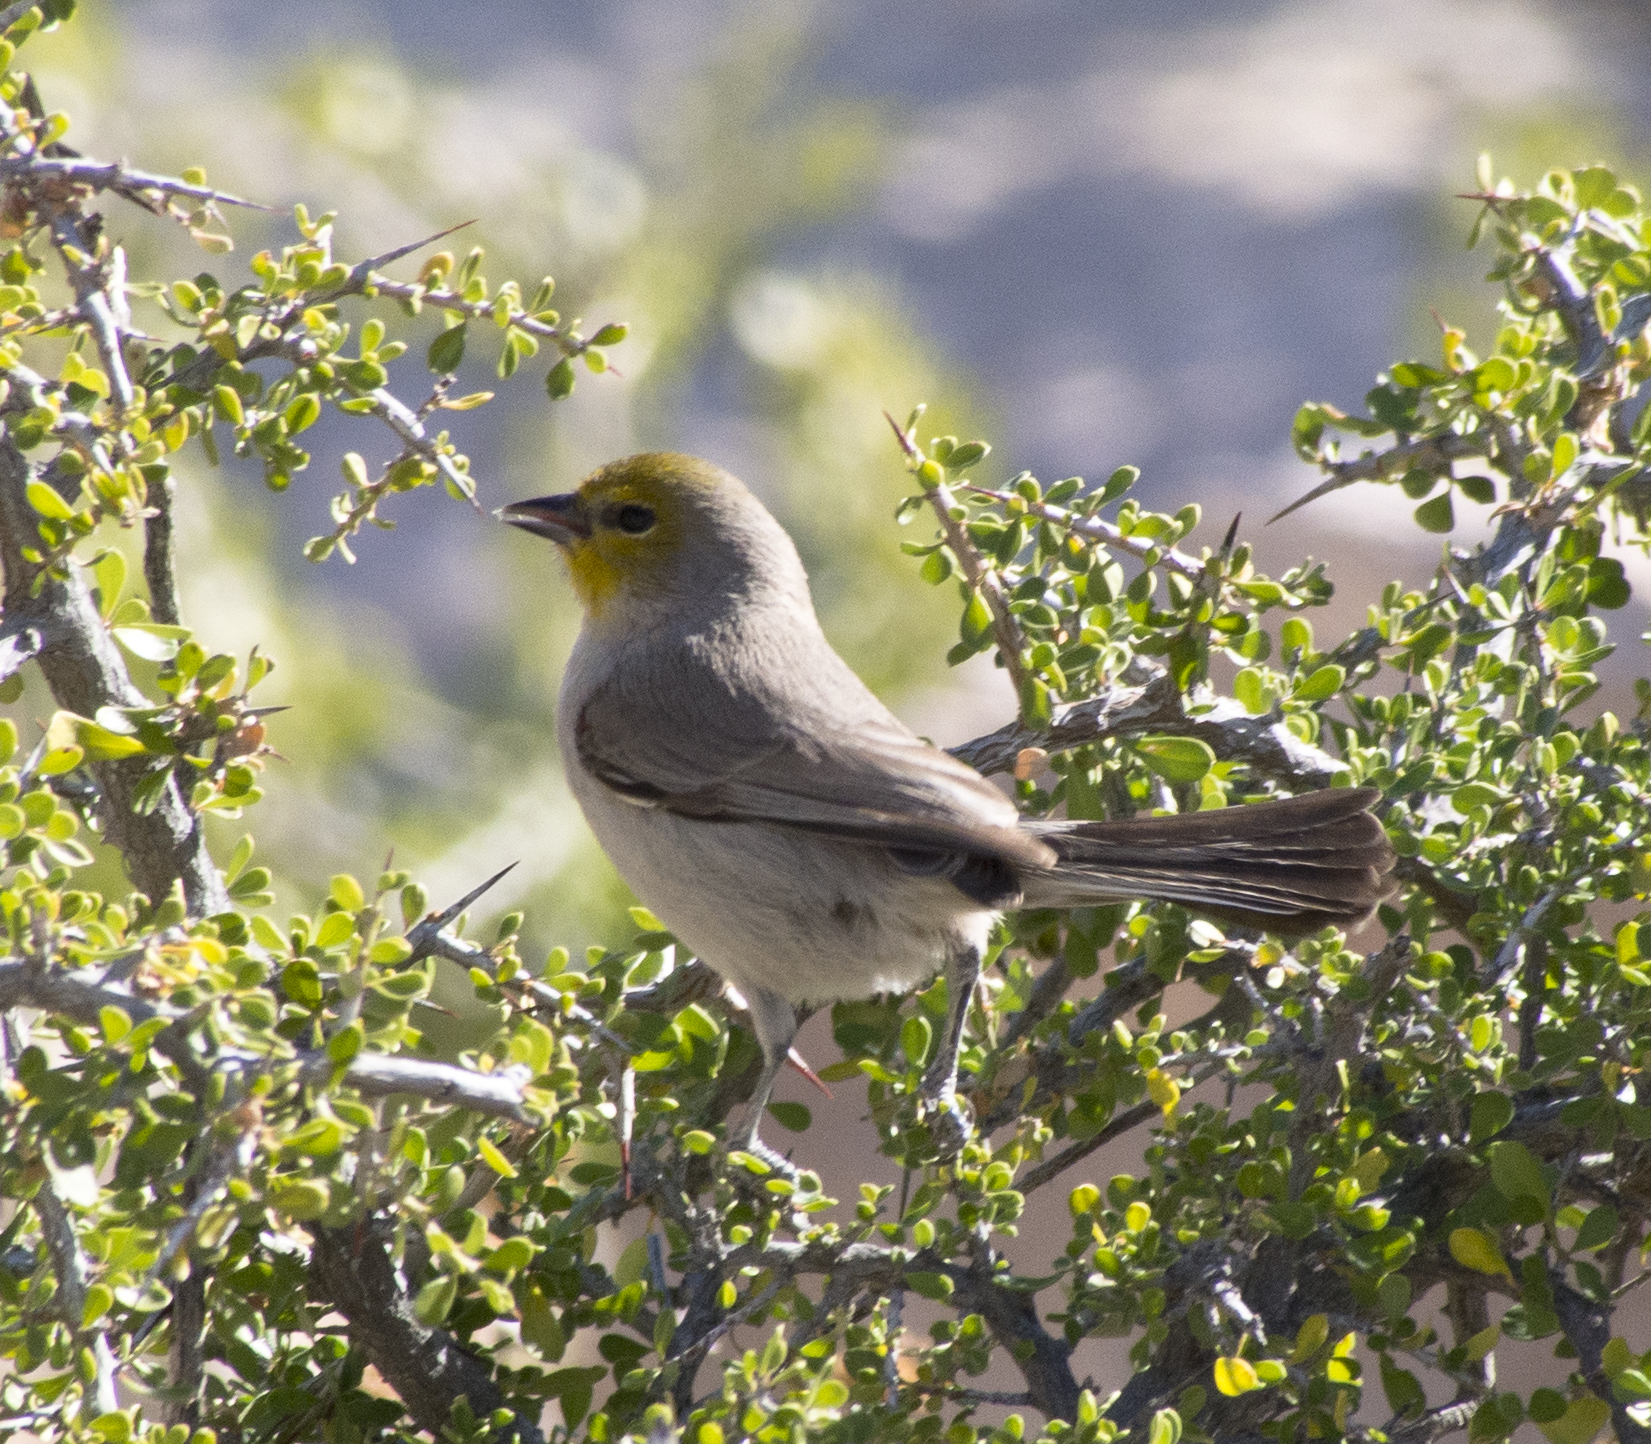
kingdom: Animalia
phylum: Chordata
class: Aves
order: Passeriformes
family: Remizidae
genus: Auriparus
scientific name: Auriparus flaviceps
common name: Verdin
